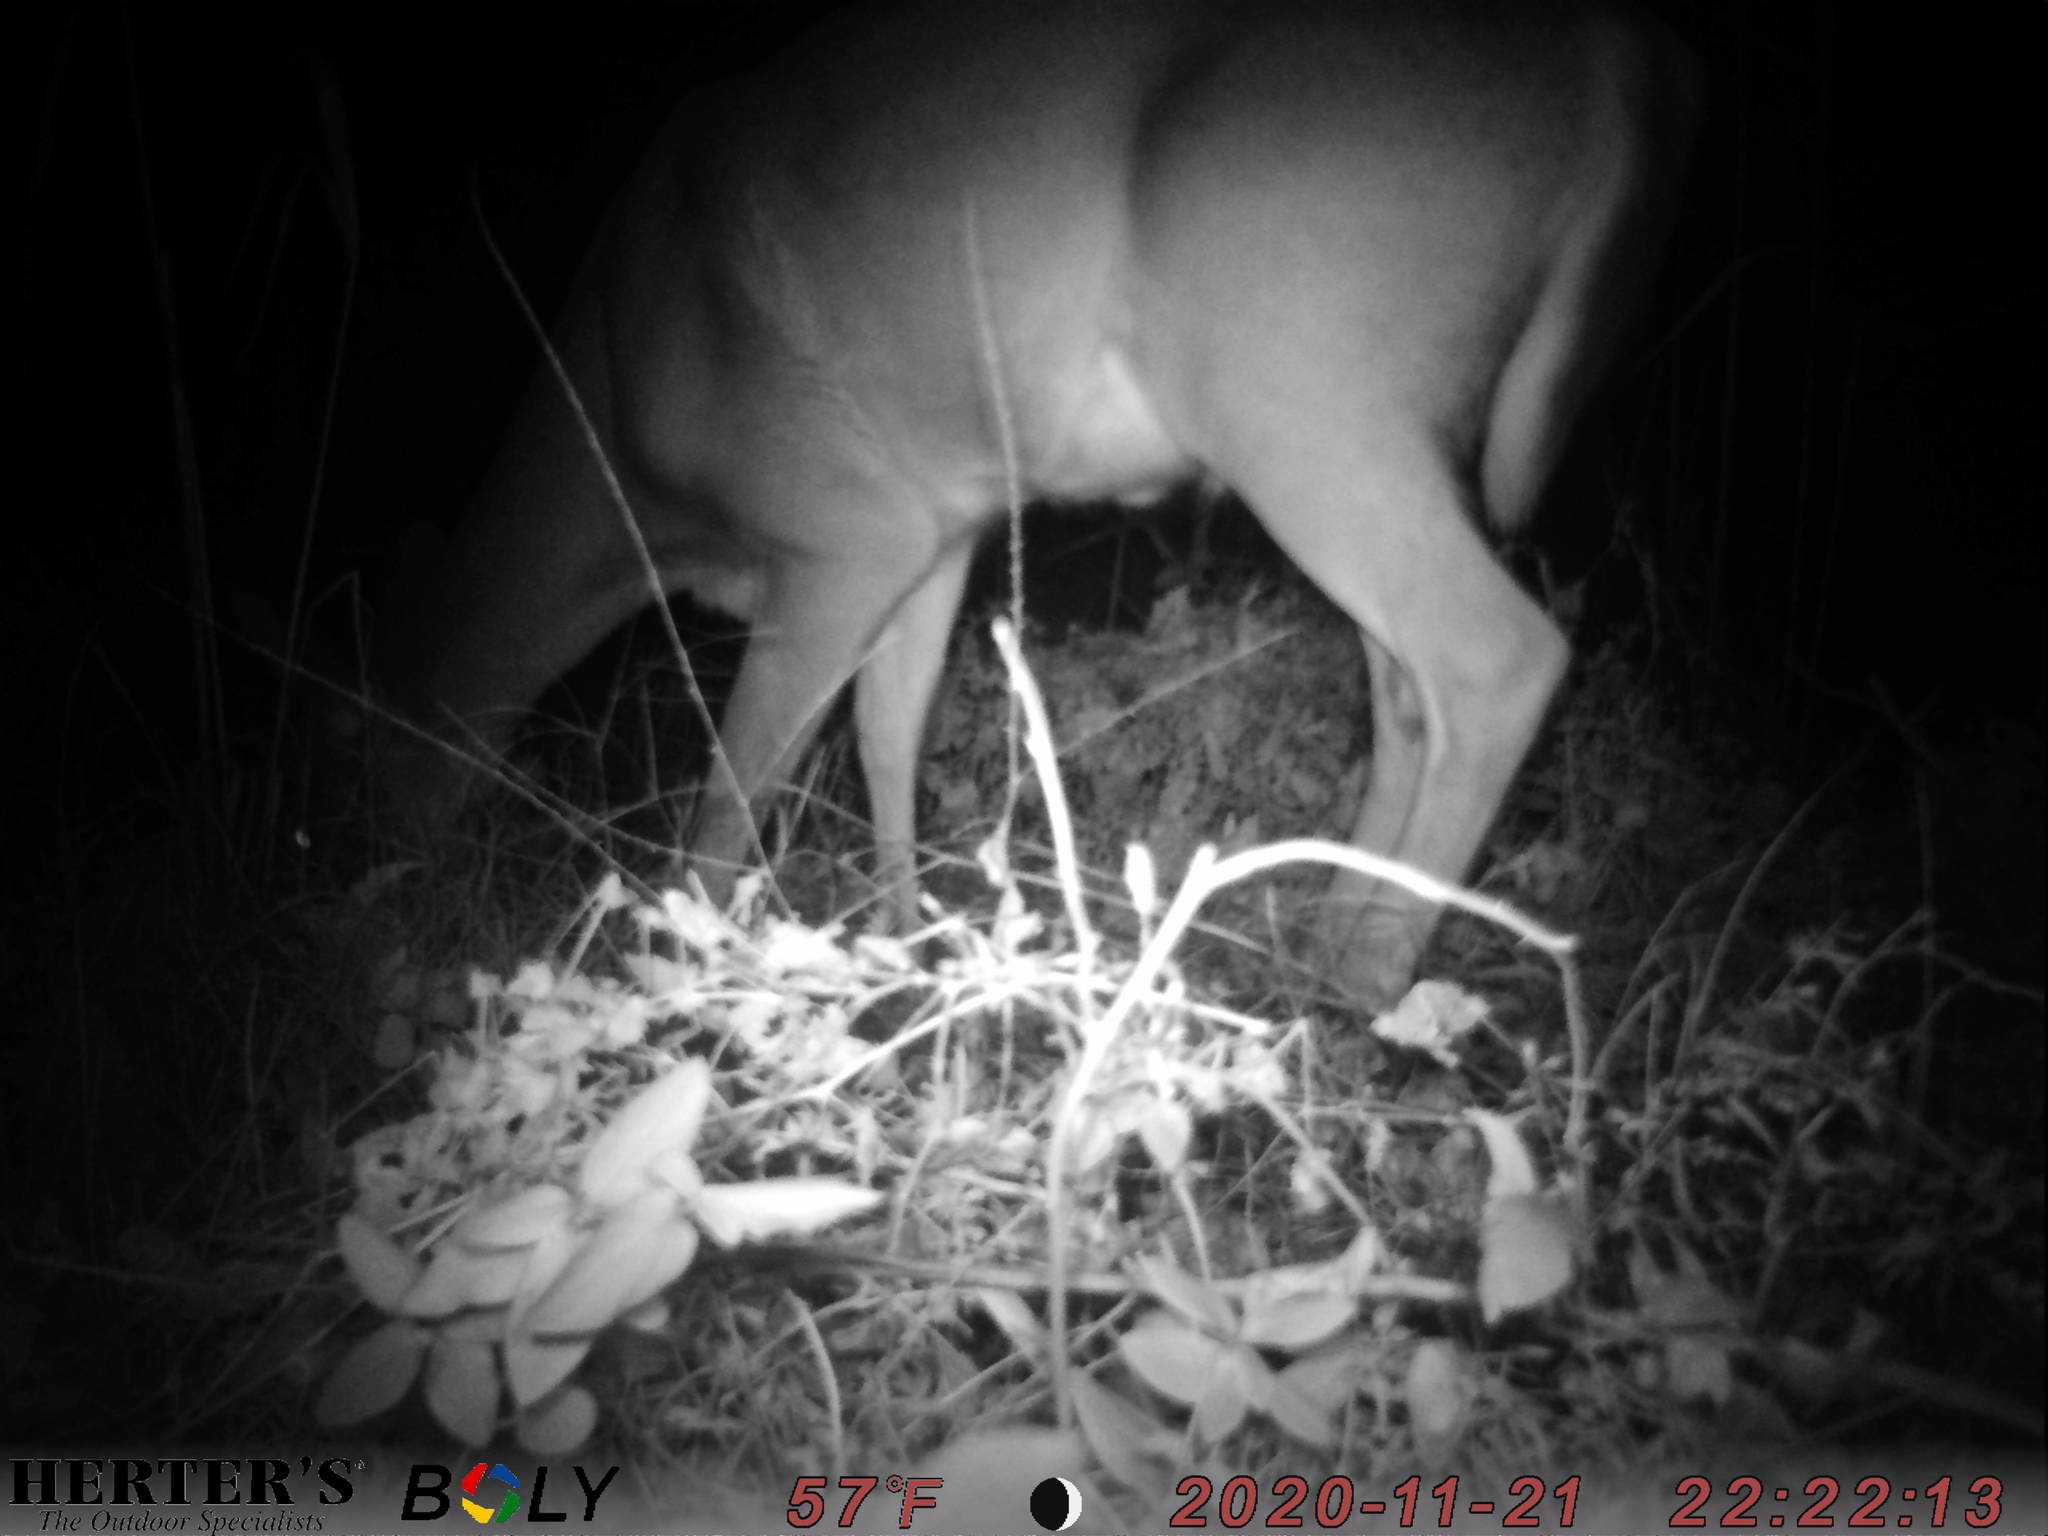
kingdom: Animalia
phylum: Chordata
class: Mammalia
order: Artiodactyla
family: Cervidae
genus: Odocoileus
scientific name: Odocoileus virginianus
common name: White-tailed deer
